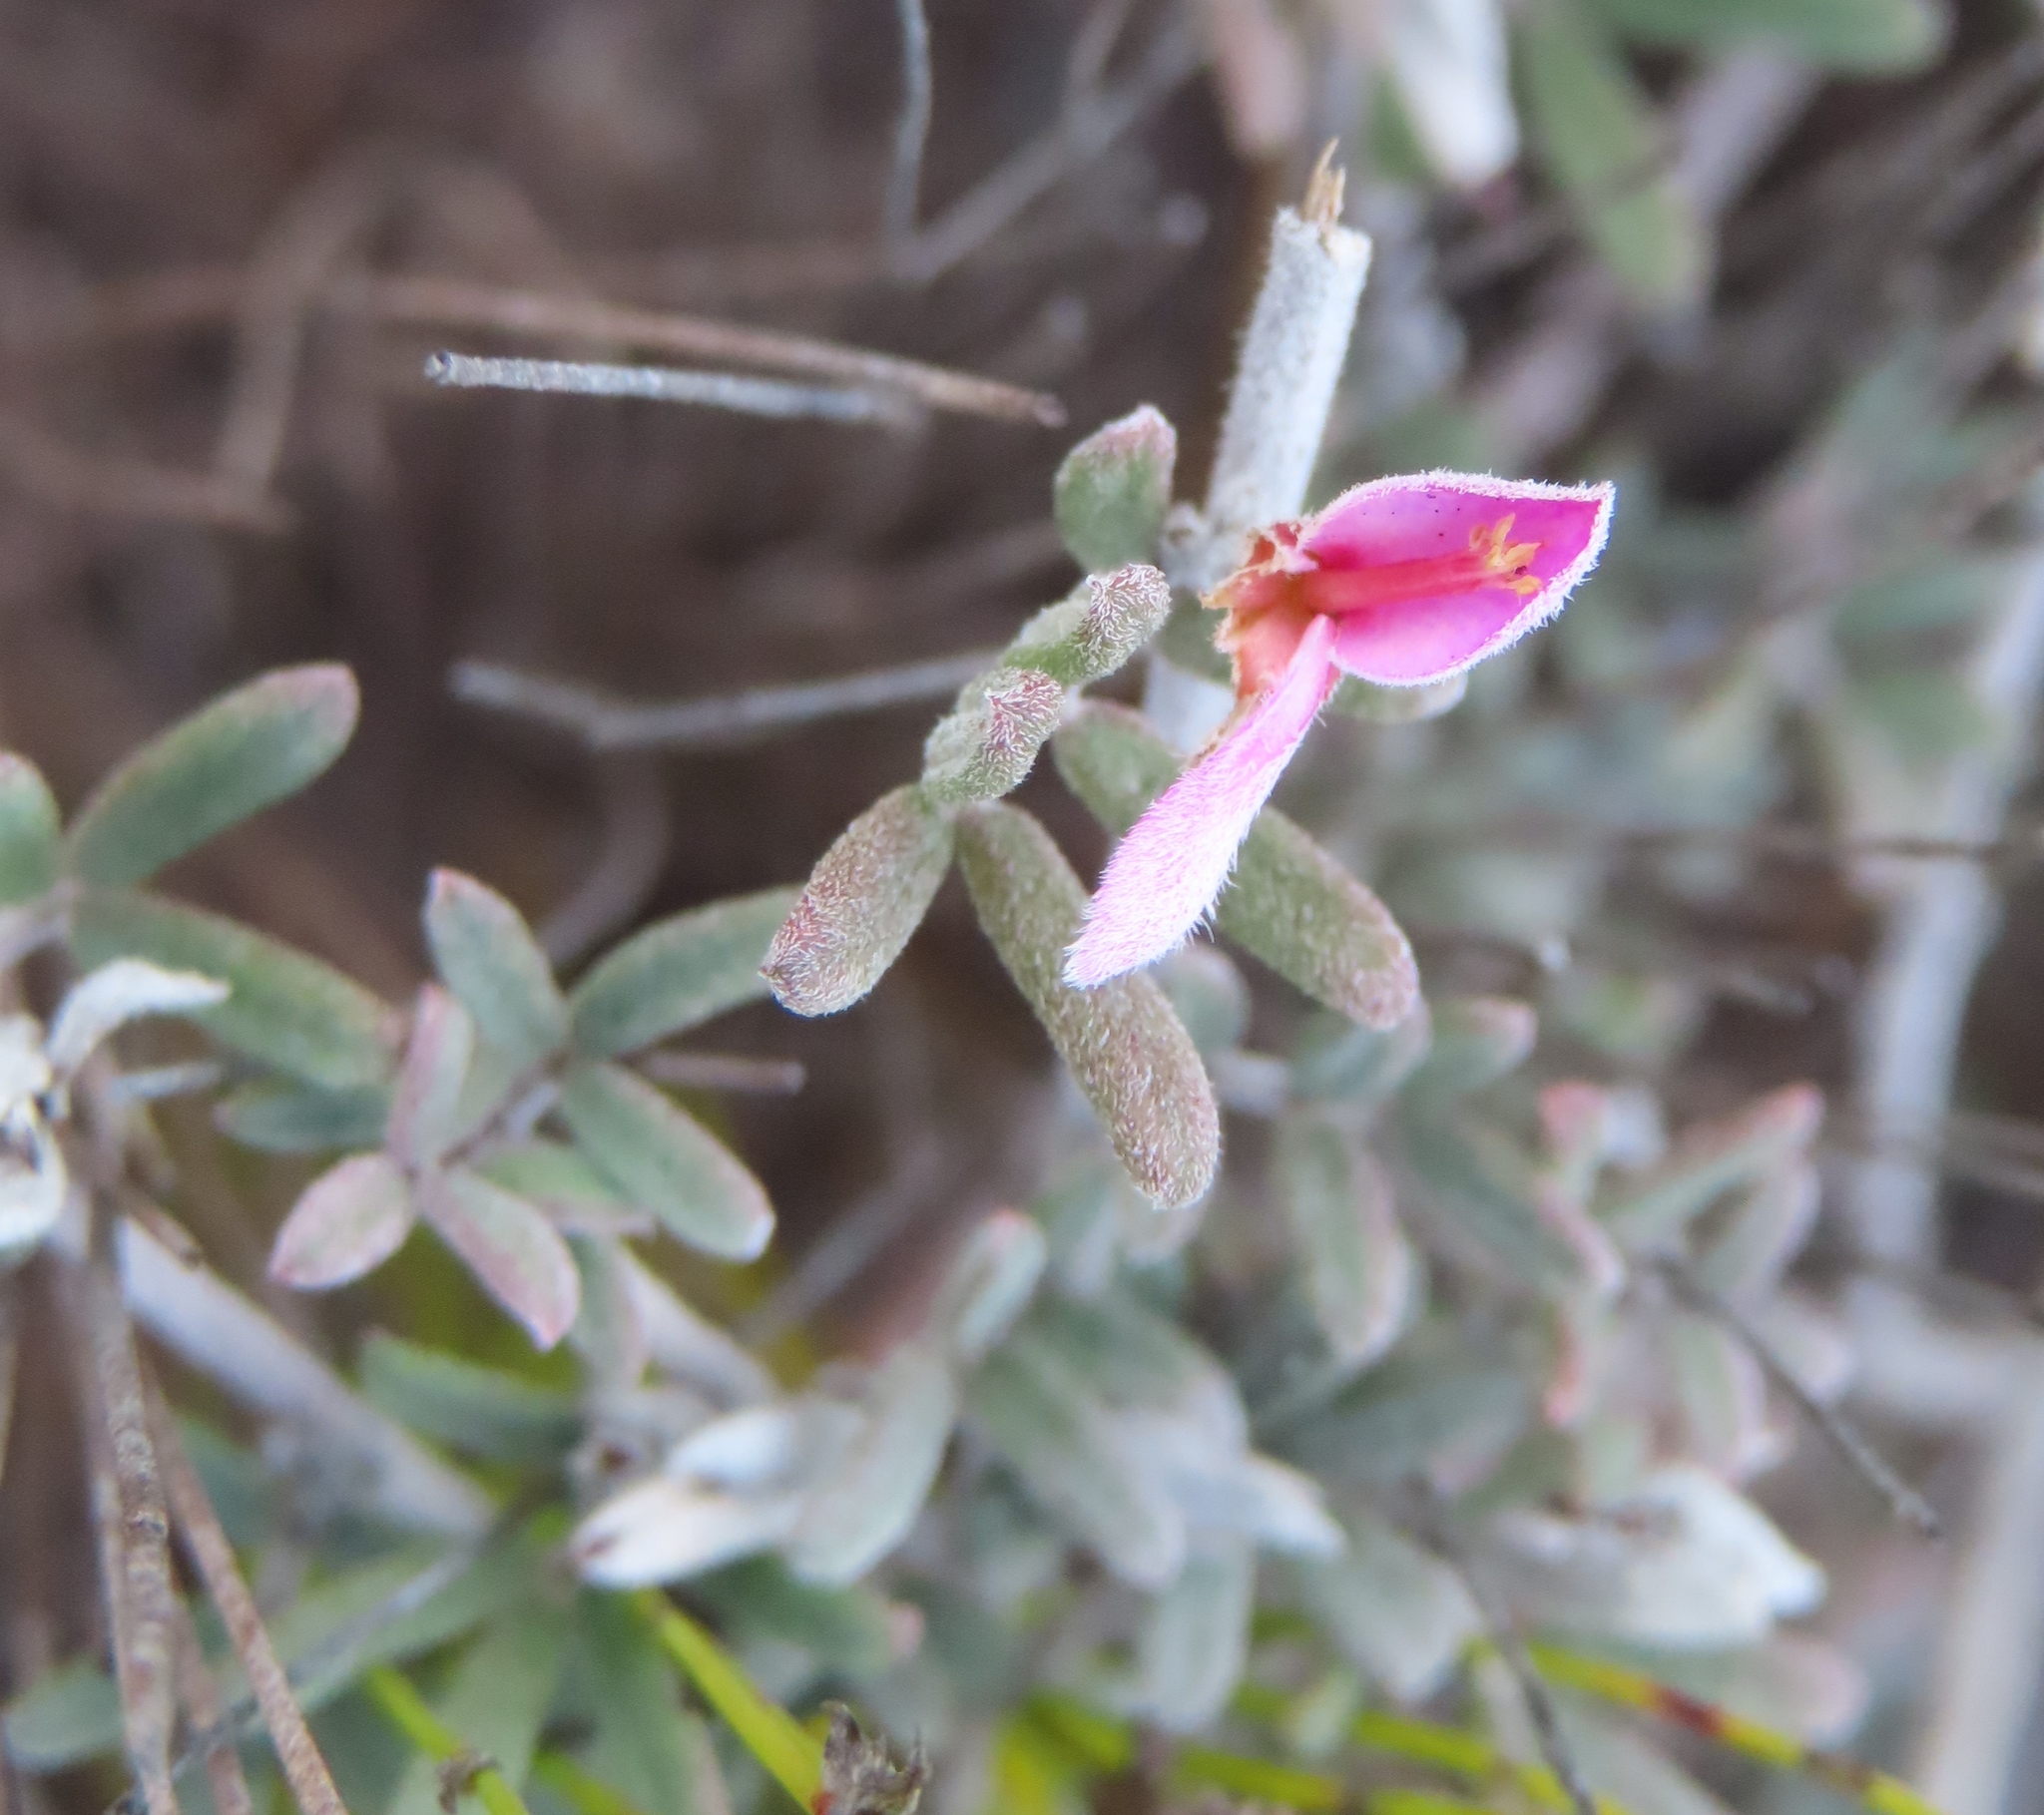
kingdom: Plantae
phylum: Tracheophyta
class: Magnoliopsida
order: Fabales
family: Fabaceae
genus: Indigofera
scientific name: Indigofera
